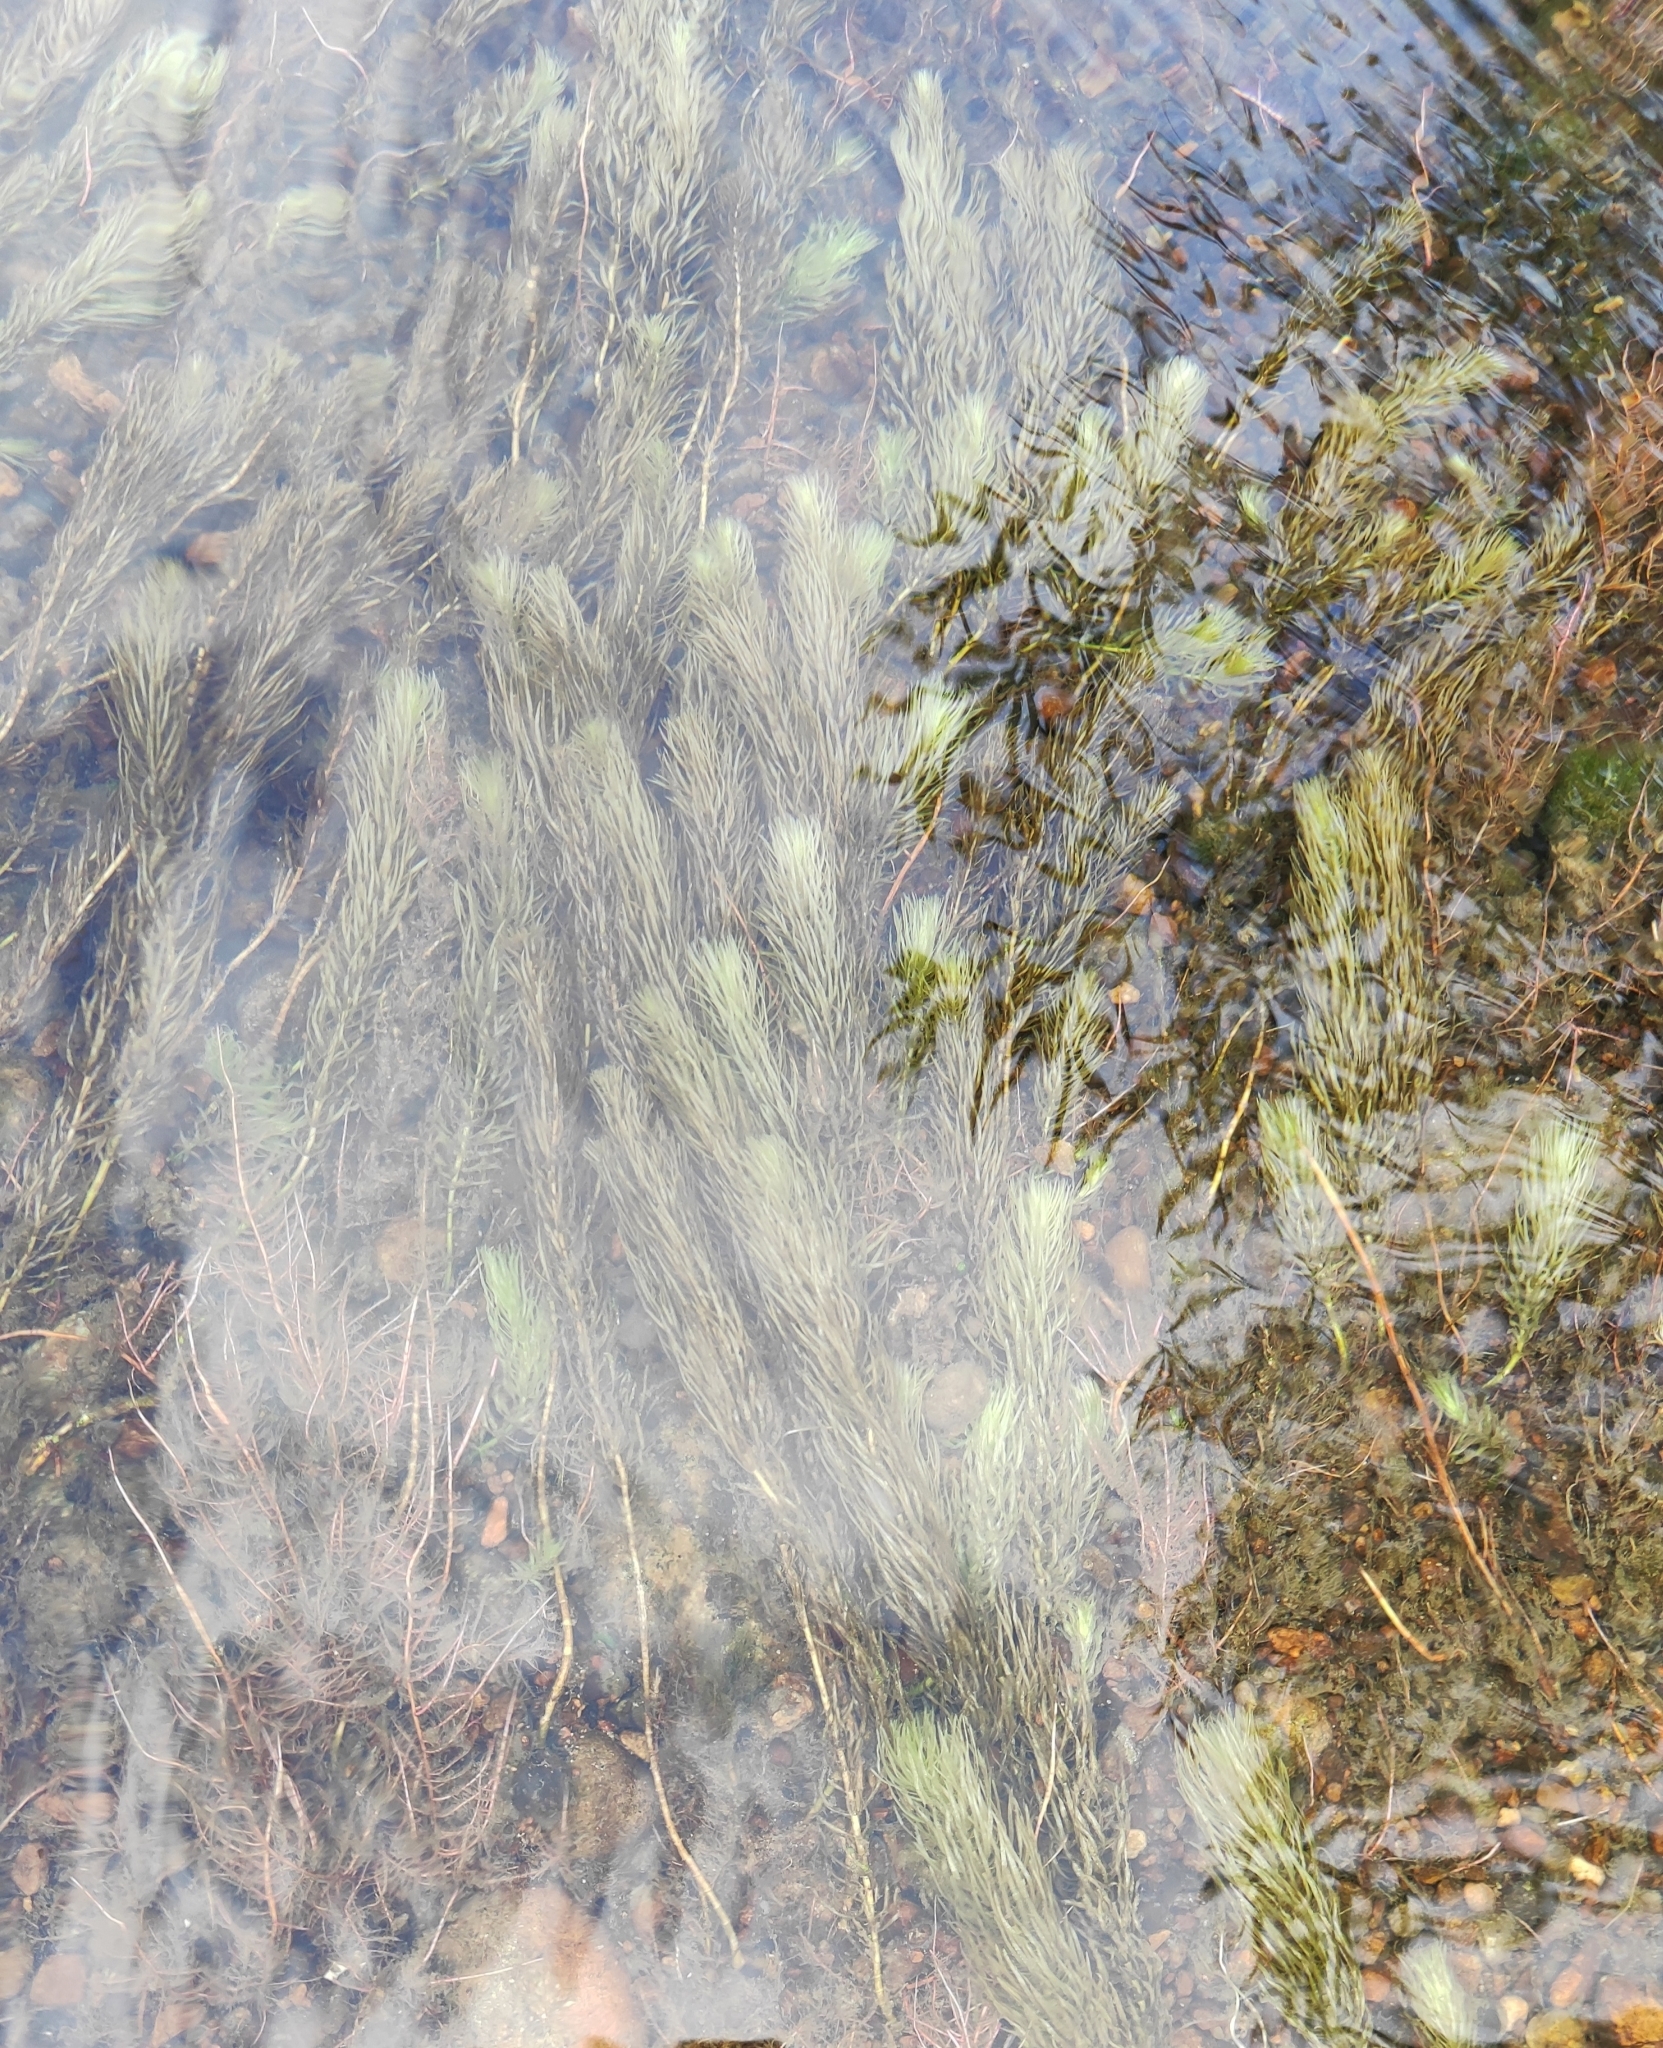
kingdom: Plantae
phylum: Tracheophyta
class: Magnoliopsida
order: Lamiales
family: Plantaginaceae
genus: Hippuris
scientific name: Hippuris vulgaris
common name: Mare's-tail
